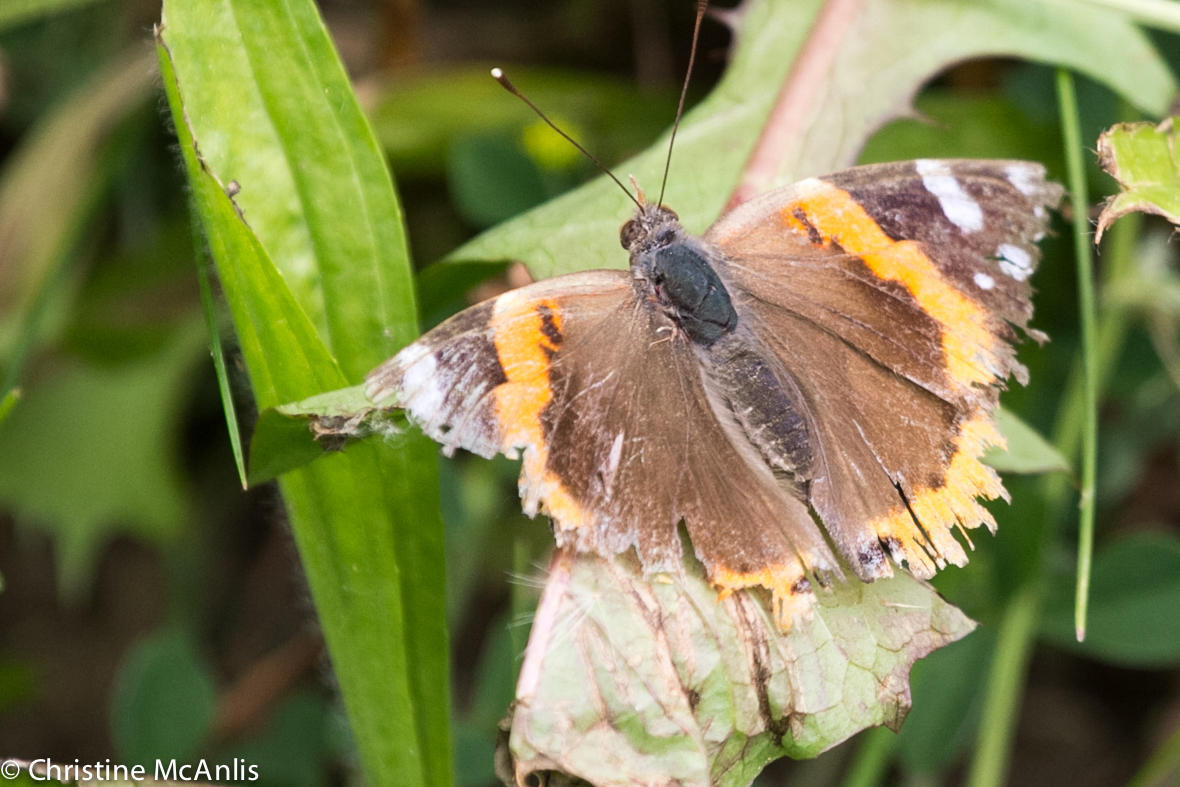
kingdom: Animalia
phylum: Arthropoda
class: Insecta
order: Lepidoptera
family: Nymphalidae
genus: Vanessa
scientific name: Vanessa atalanta
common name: Red admiral
